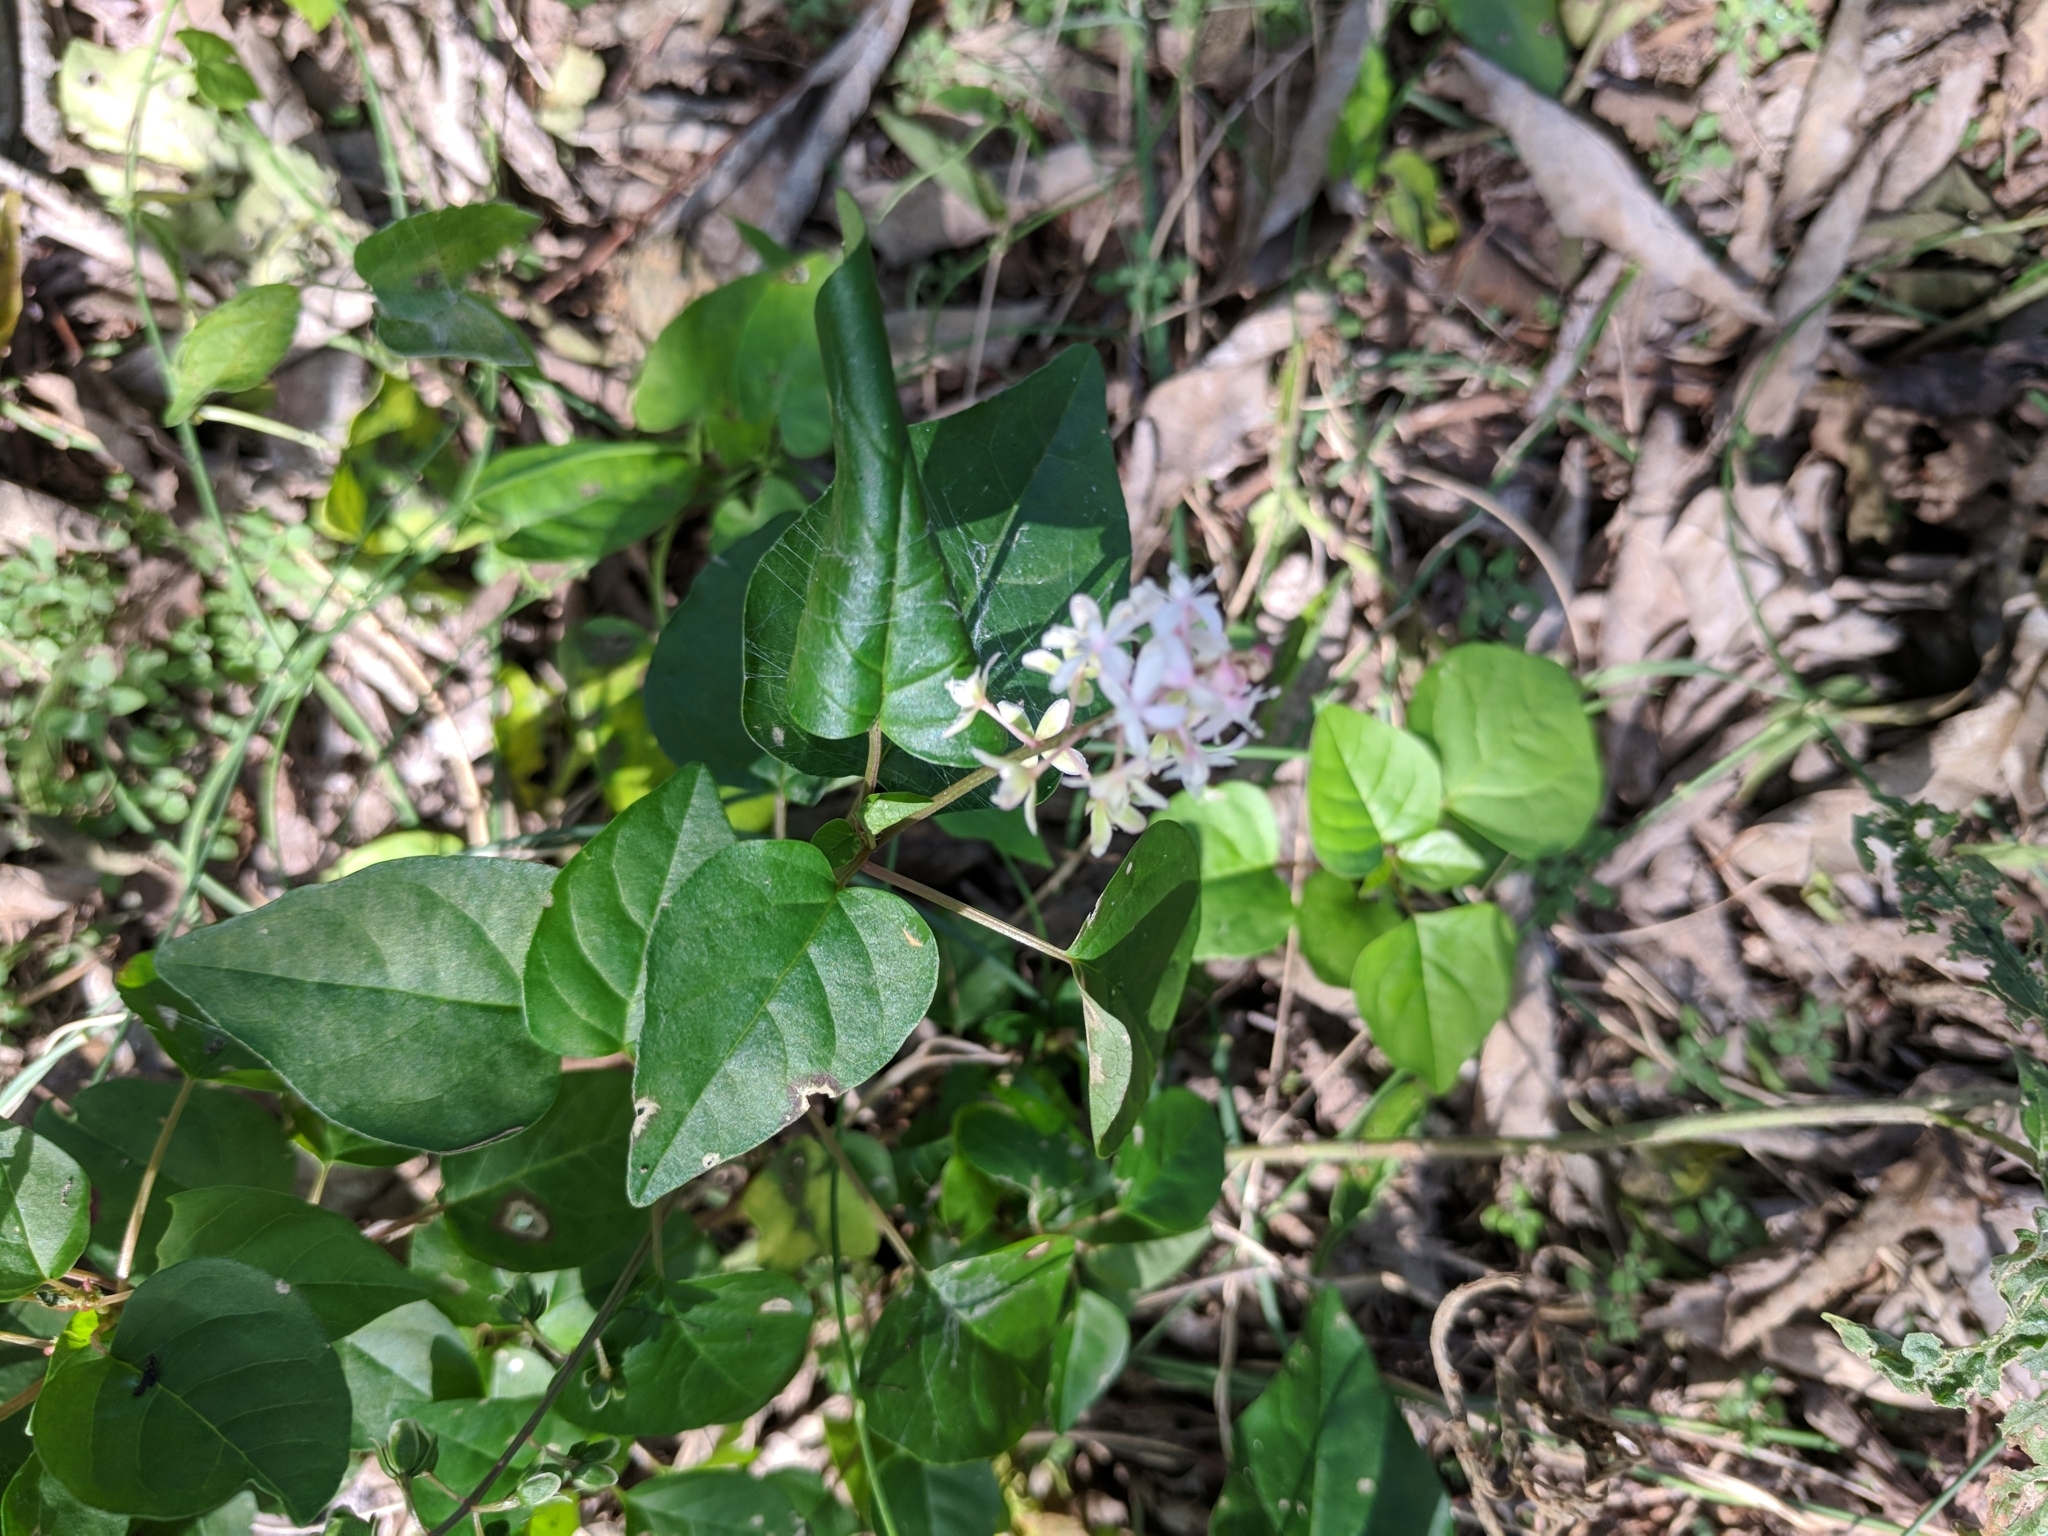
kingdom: Plantae
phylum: Tracheophyta
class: Magnoliopsida
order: Caryophyllales
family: Phytolaccaceae
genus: Rivina
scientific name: Rivina humilis
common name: Rougeplant
